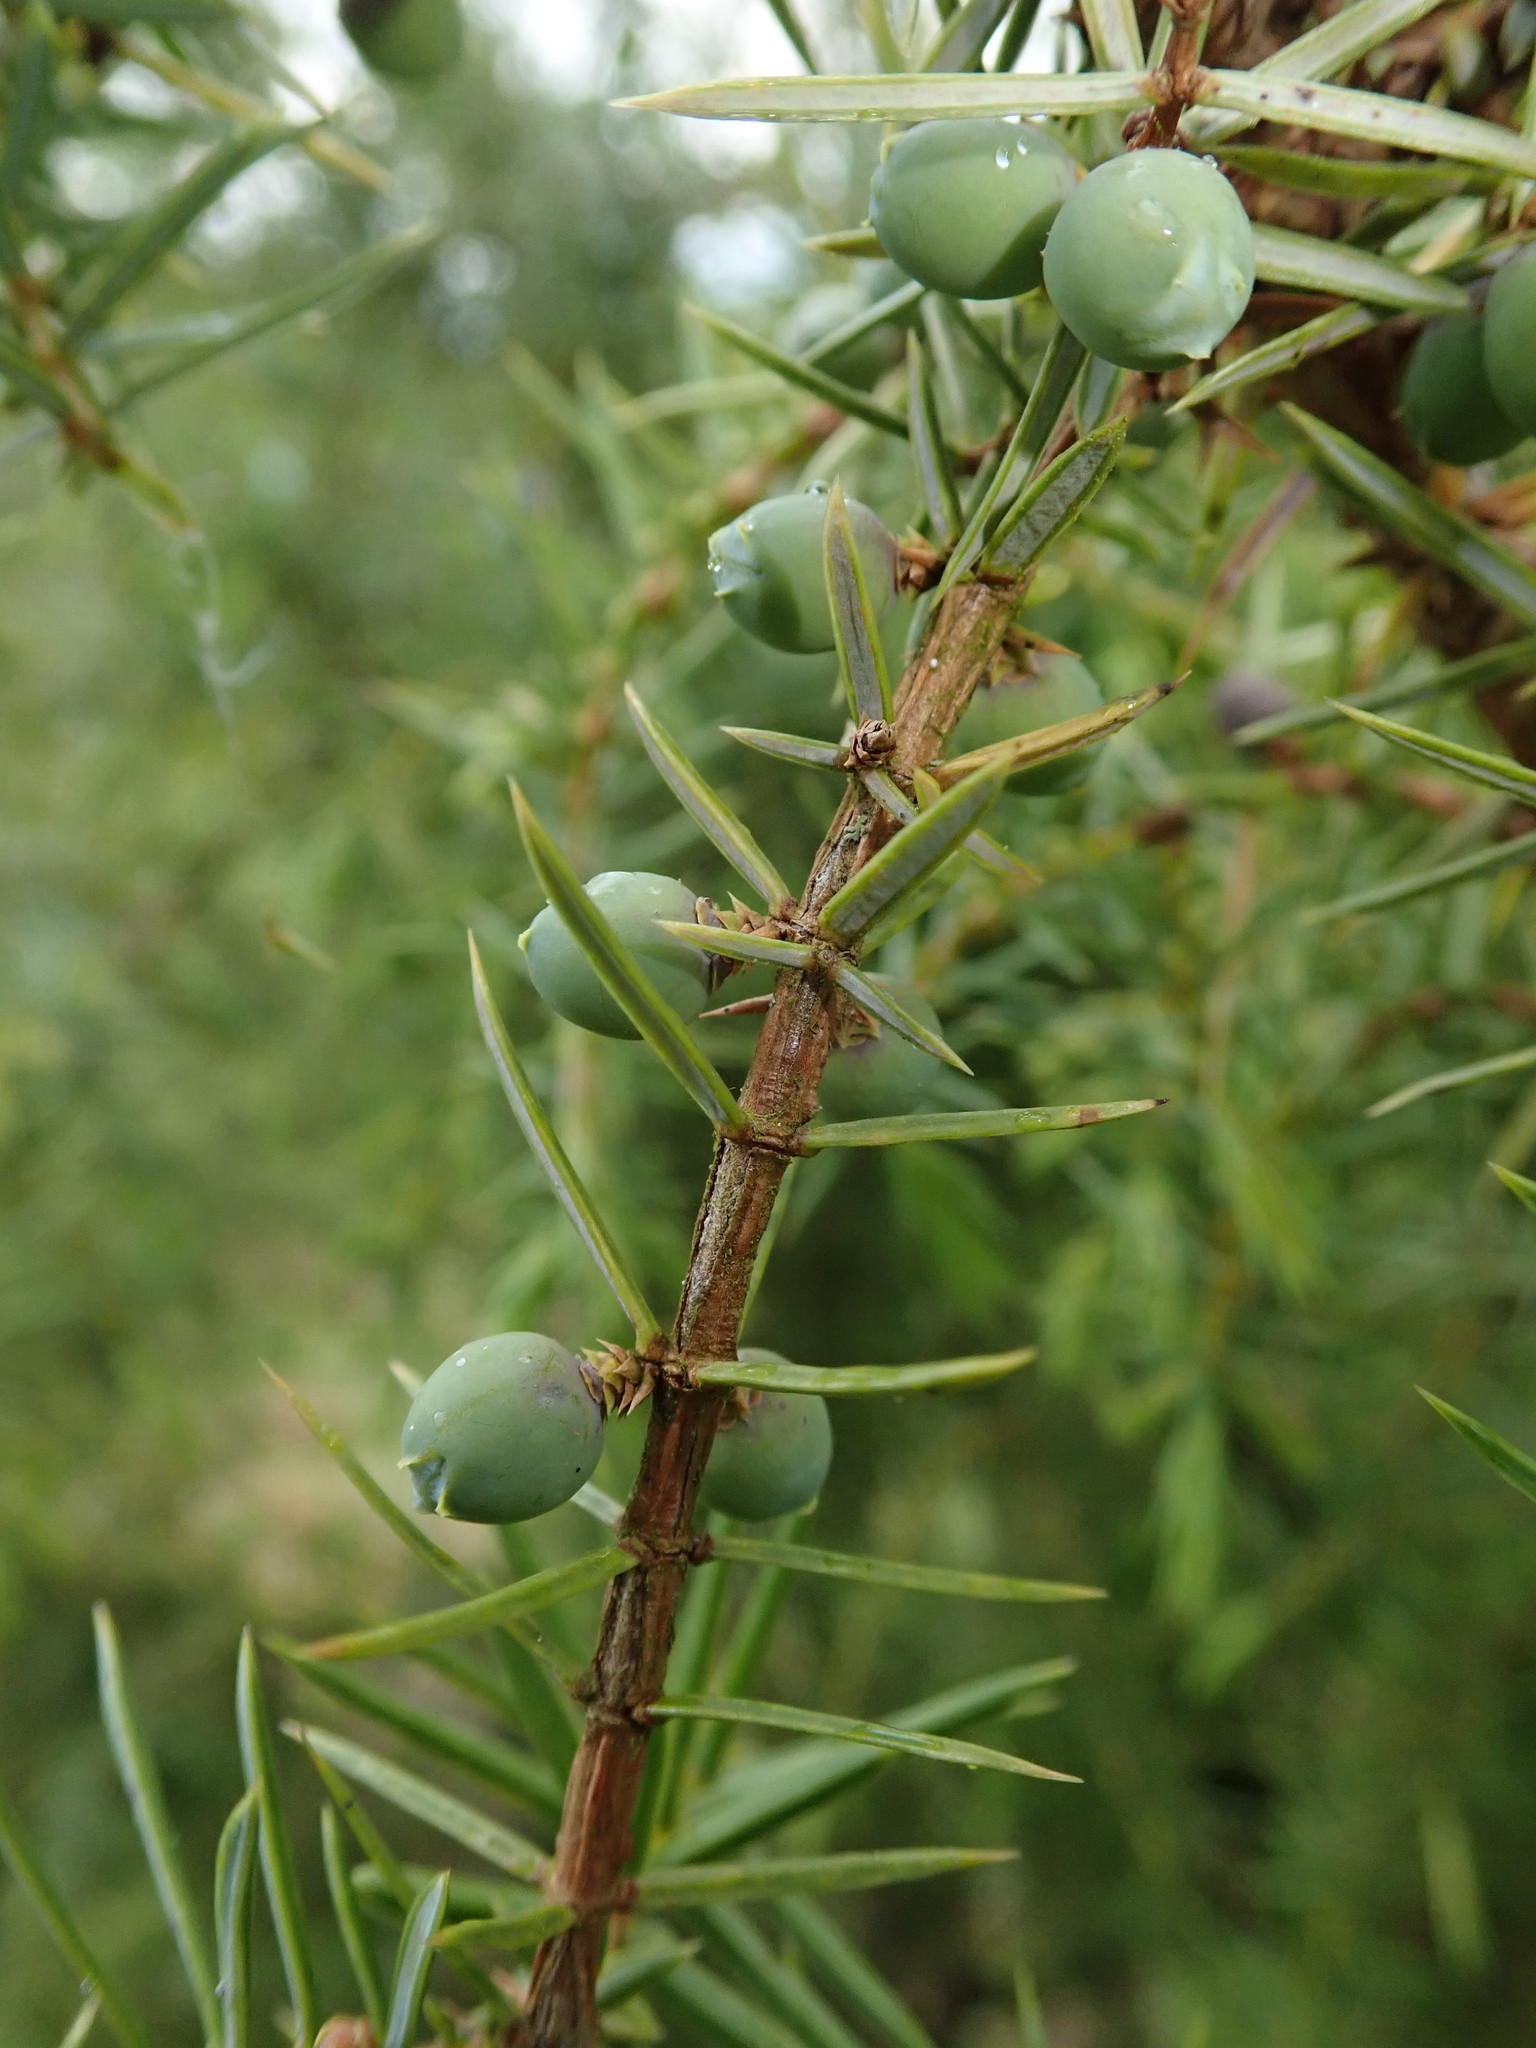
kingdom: Plantae
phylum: Tracheophyta
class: Pinopsida
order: Pinales
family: Cupressaceae
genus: Juniperus
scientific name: Juniperus communis
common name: Common juniper
